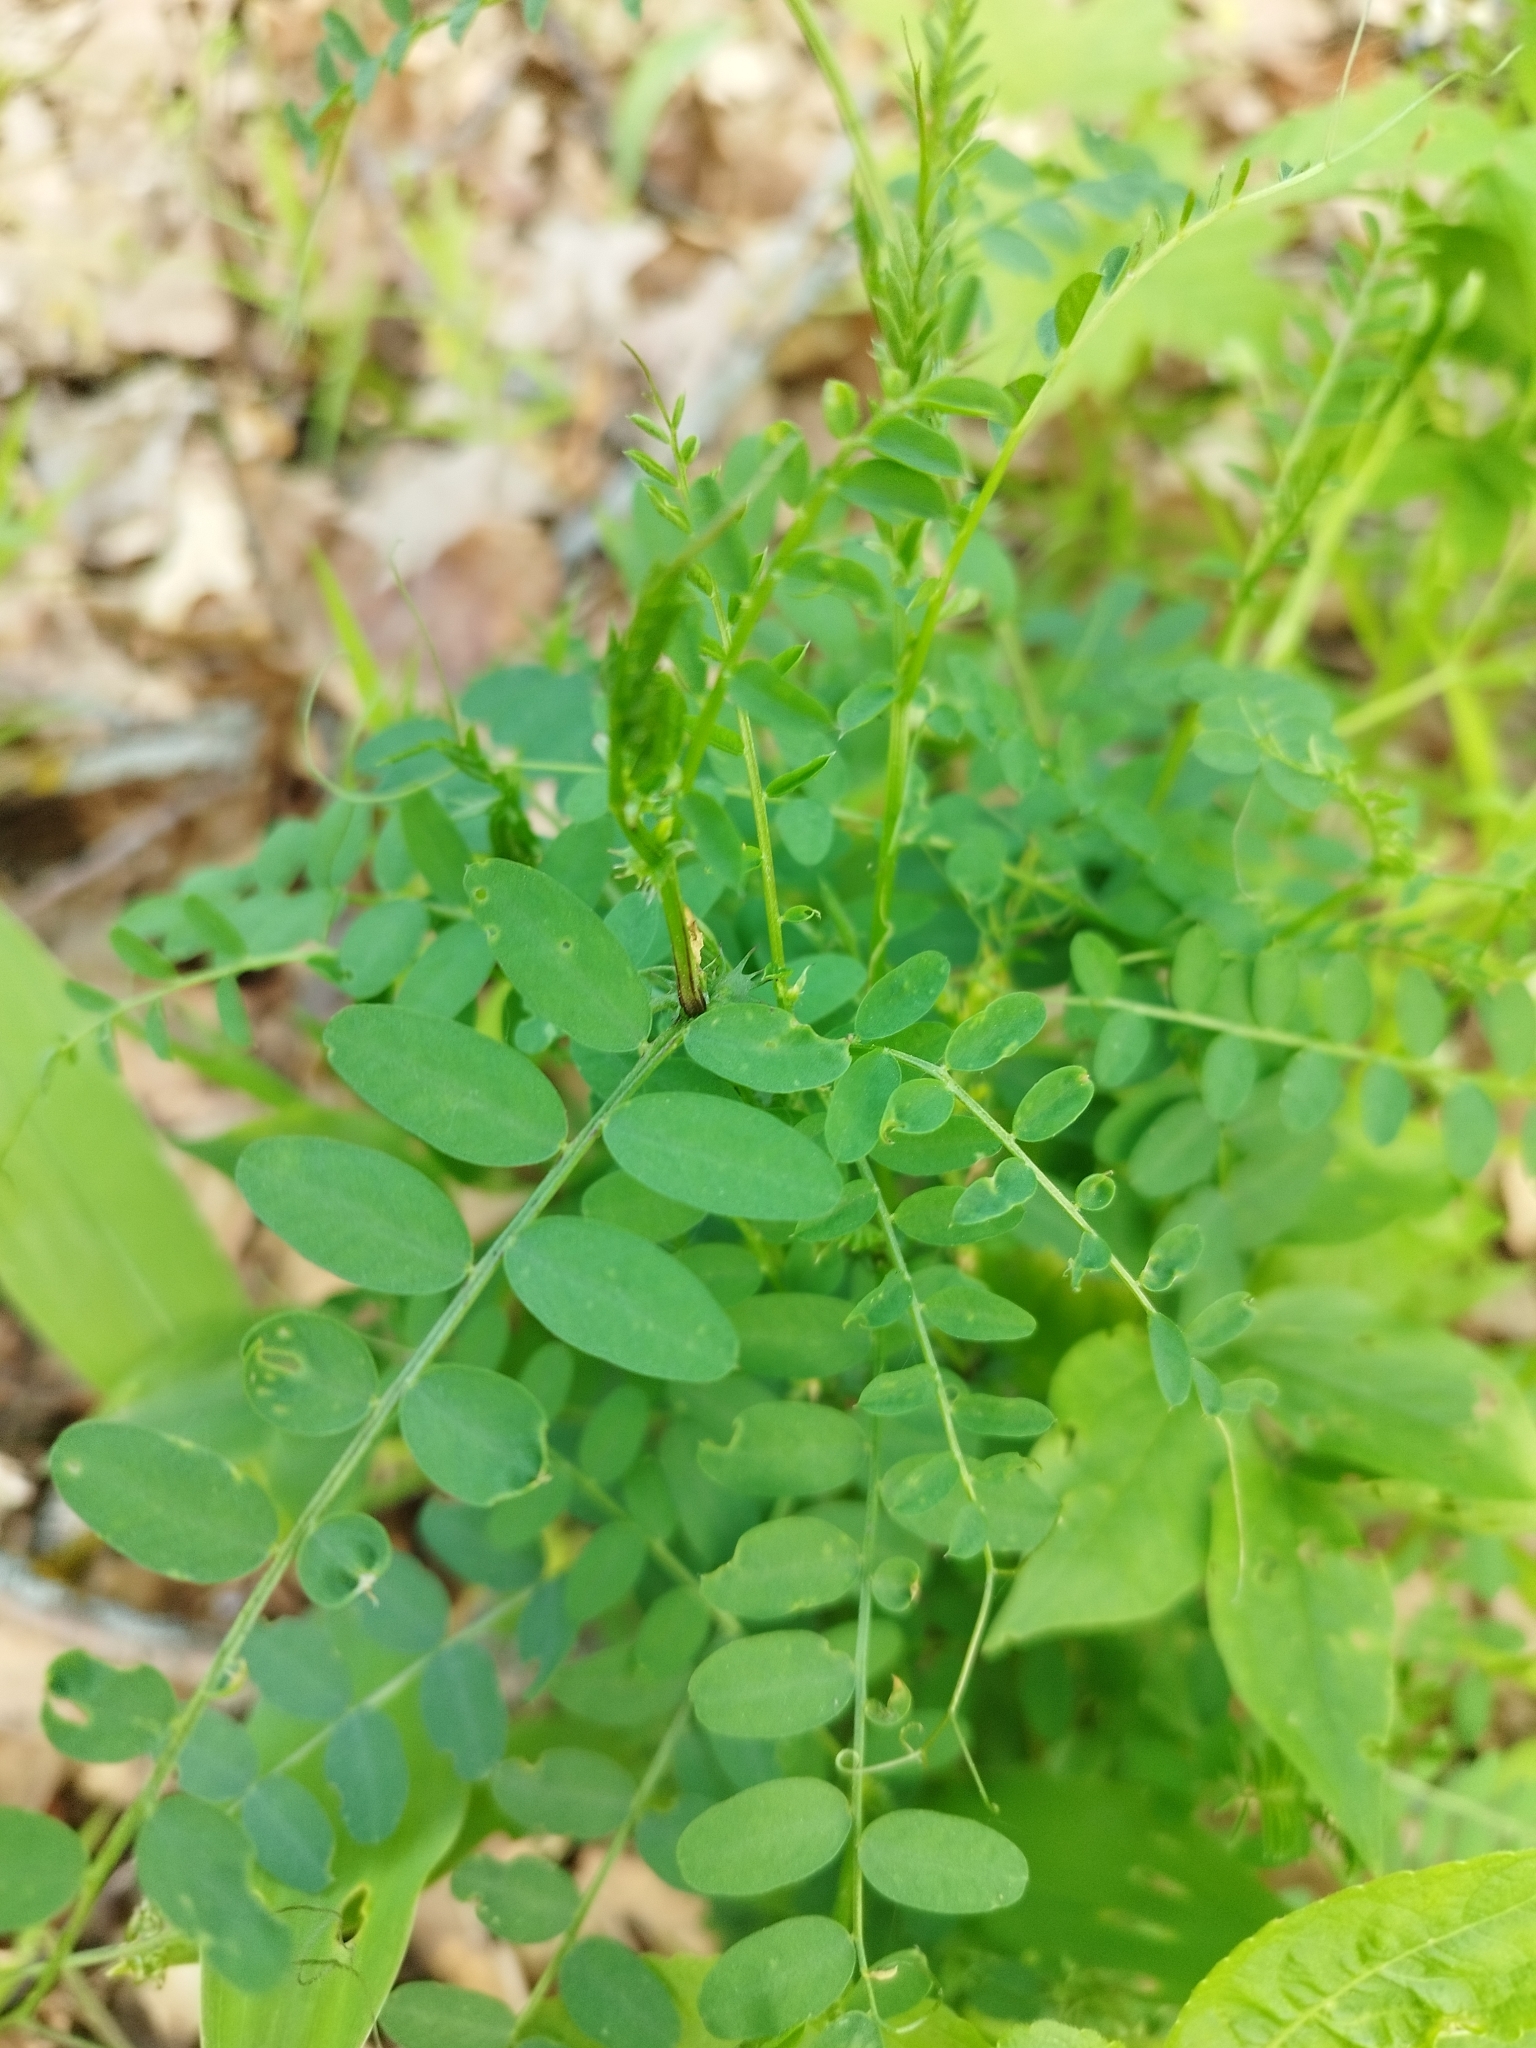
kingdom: Plantae
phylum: Tracheophyta
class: Magnoliopsida
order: Fabales
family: Fabaceae
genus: Vicia
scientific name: Vicia sylvatica
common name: Wood vetch
